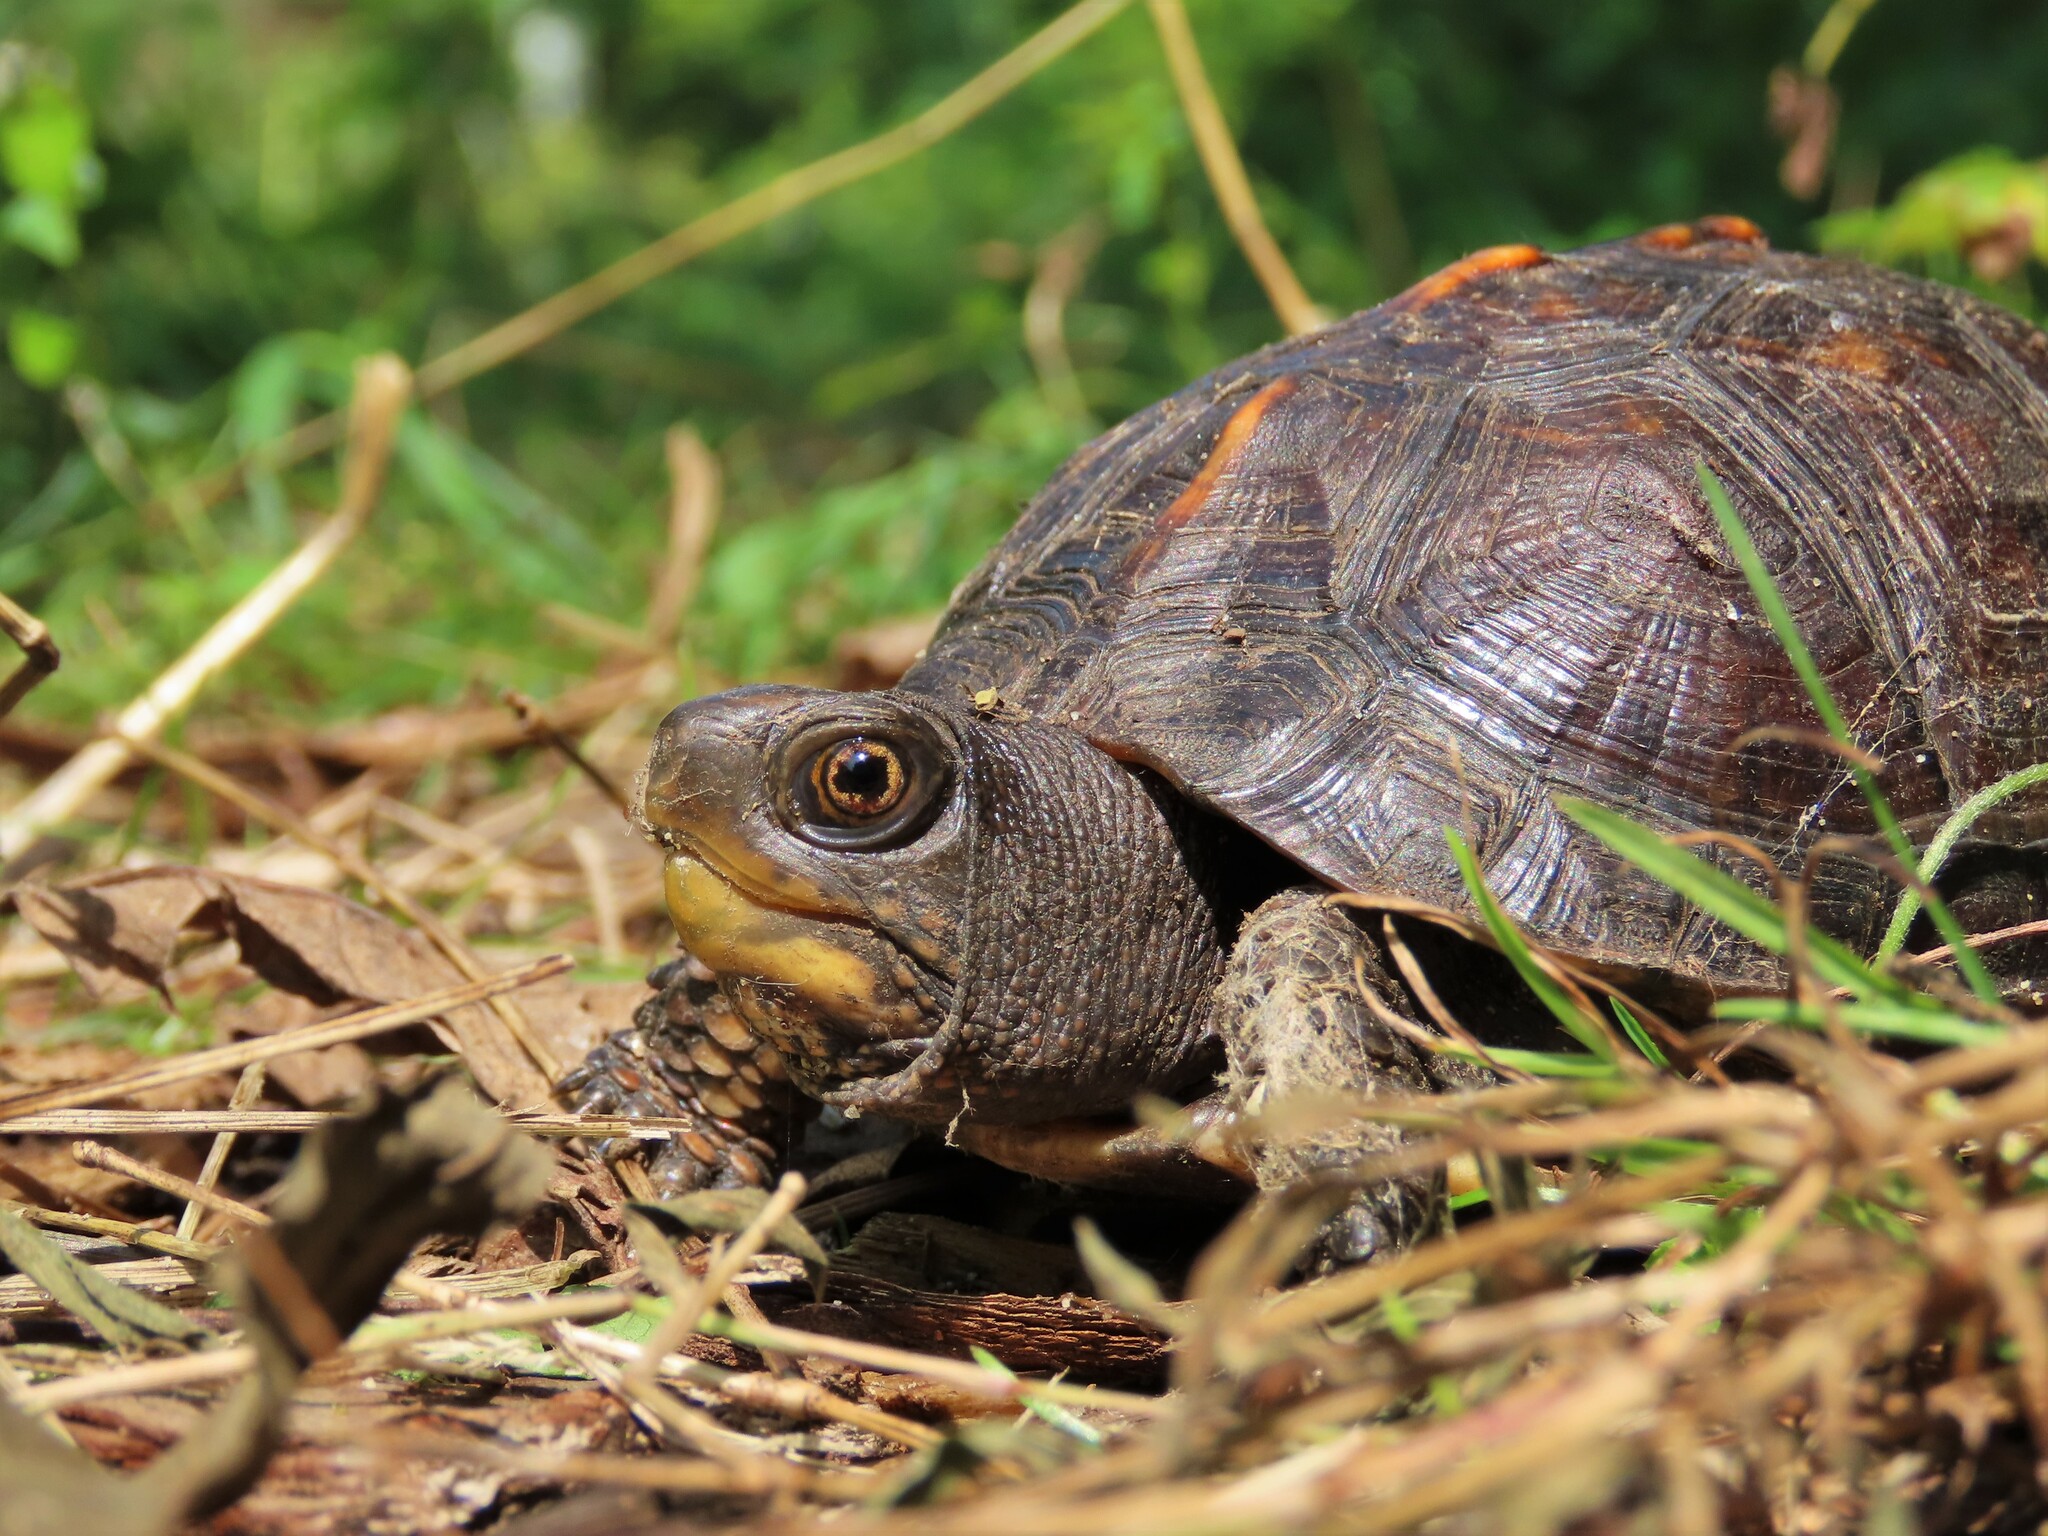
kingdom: Animalia
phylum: Chordata
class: Testudines
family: Emydidae
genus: Terrapene
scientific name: Terrapene carolina
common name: Common box turtle
